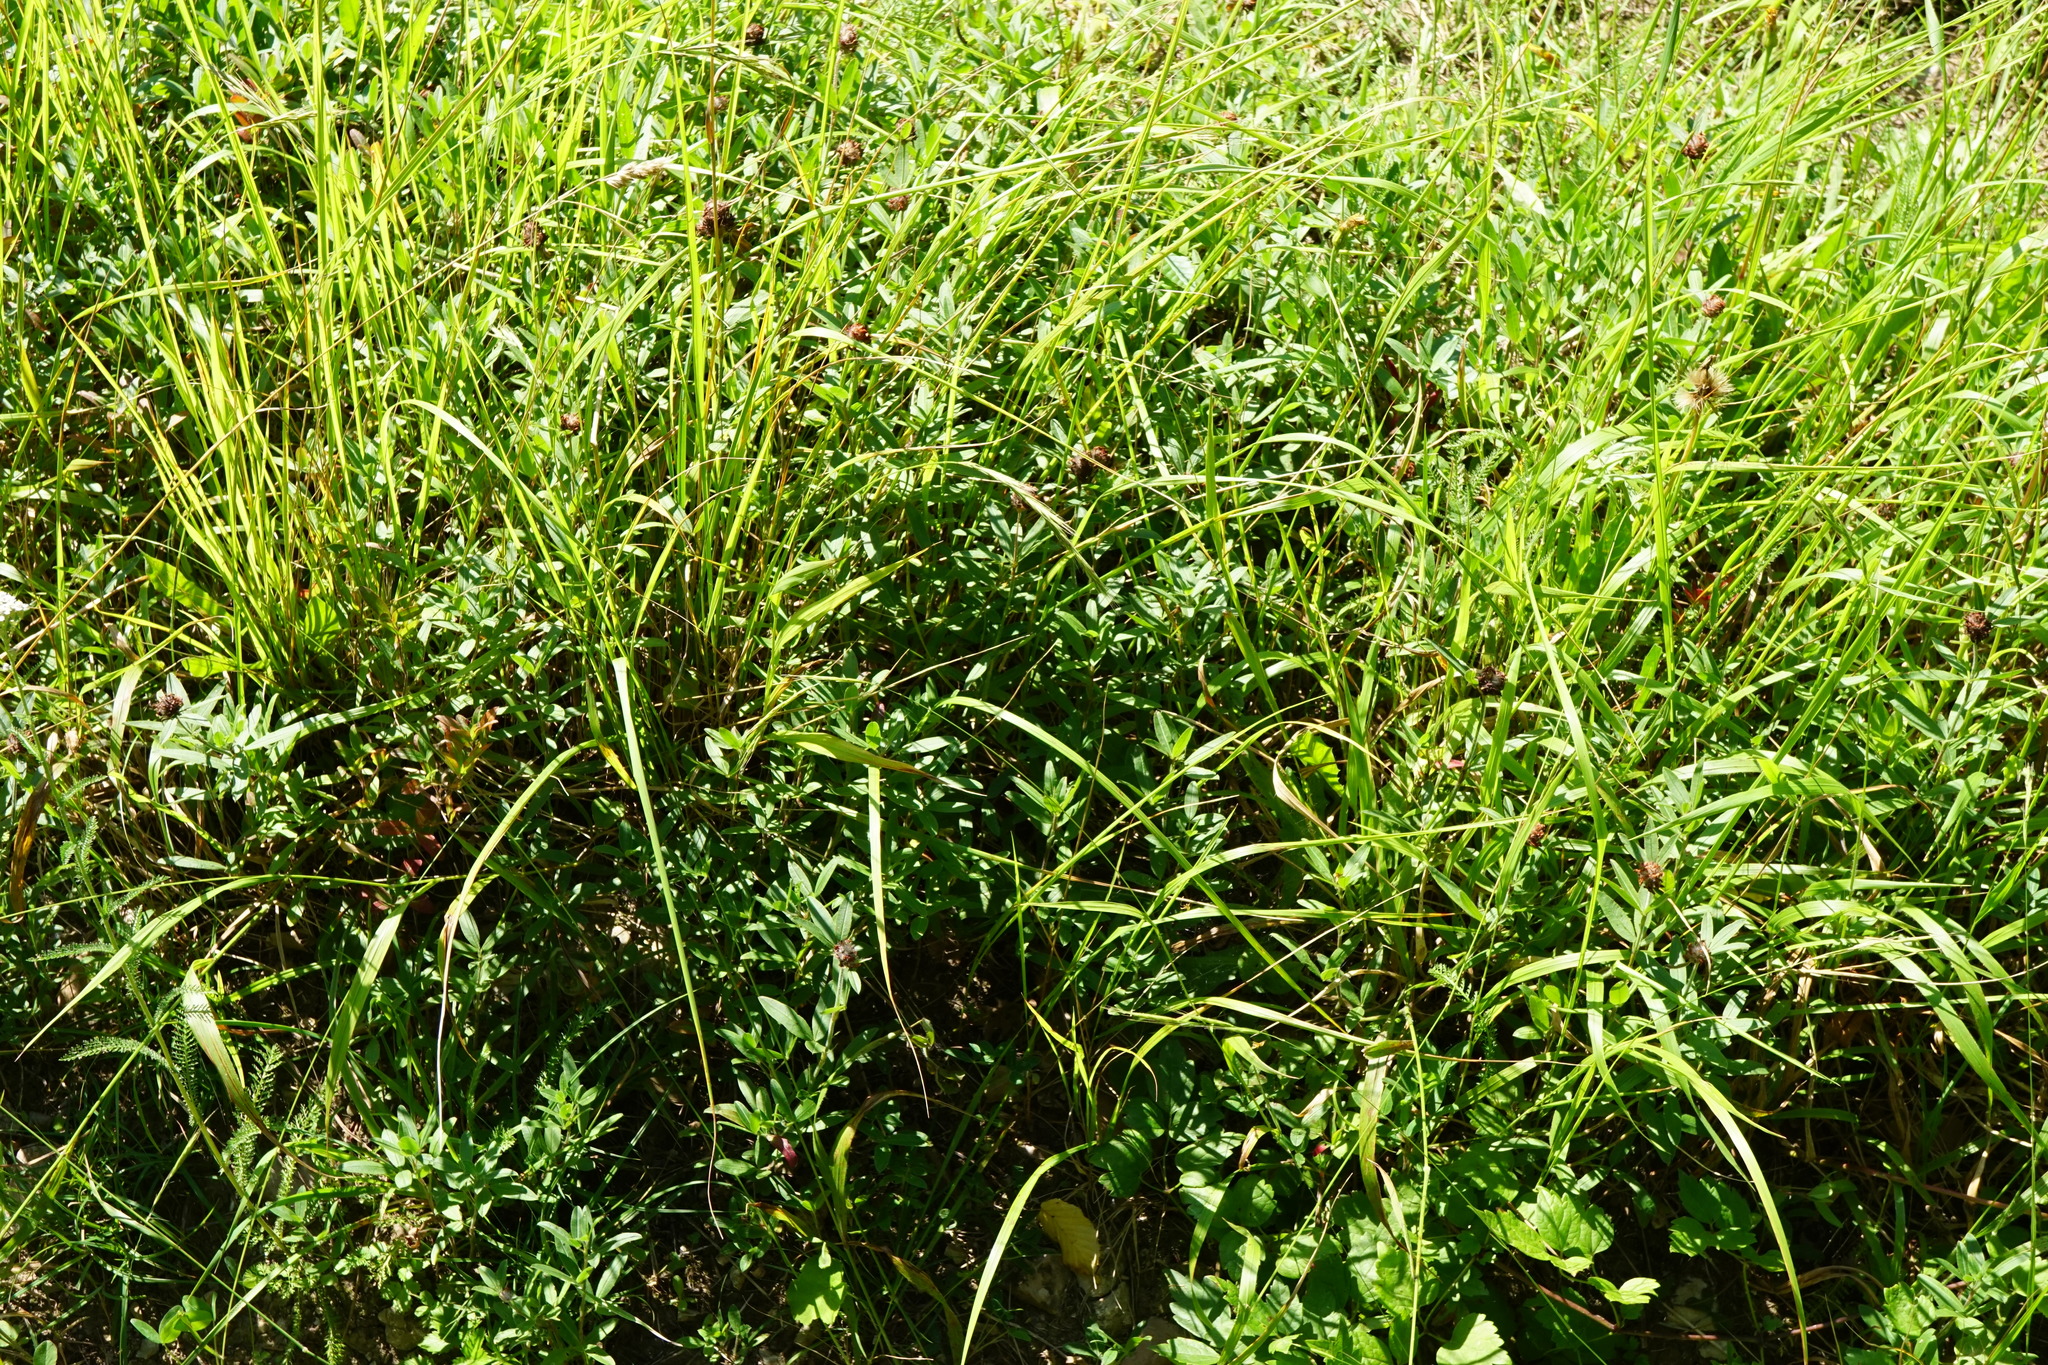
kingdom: Plantae
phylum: Tracheophyta
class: Magnoliopsida
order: Fabales
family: Fabaceae
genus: Trifolium
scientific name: Trifolium alpestre
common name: Owl-head clover
